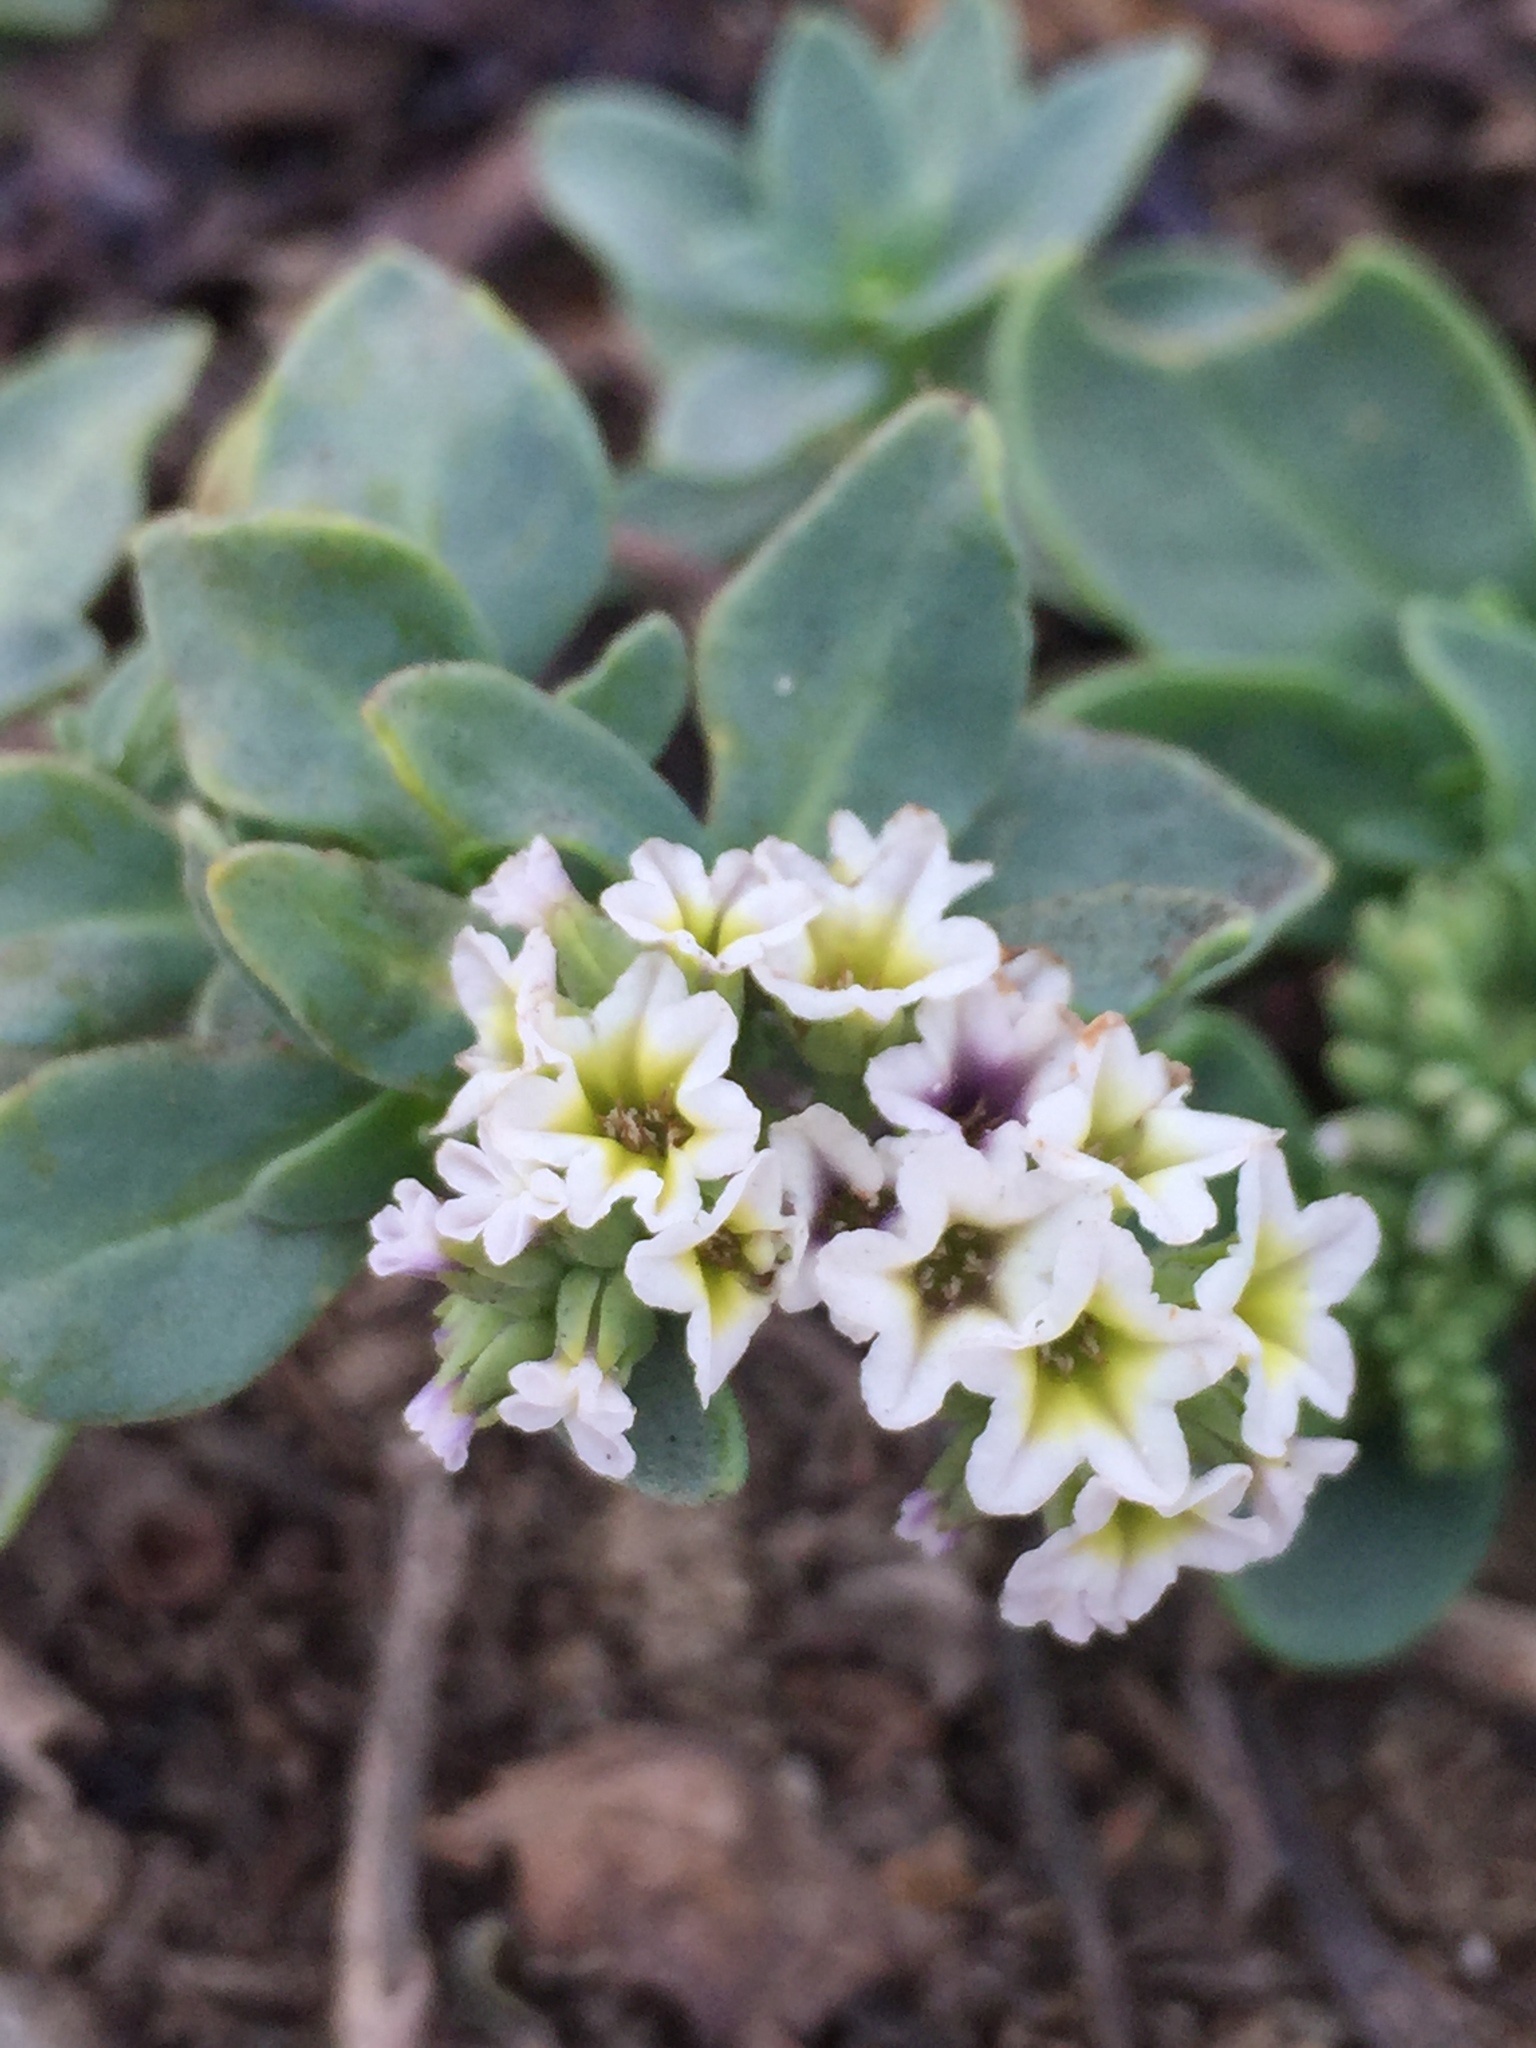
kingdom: Plantae
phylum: Tracheophyta
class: Magnoliopsida
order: Boraginales
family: Heliotropiaceae
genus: Heliotropium
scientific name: Heliotropium curassavicum
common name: Seaside heliotrope
